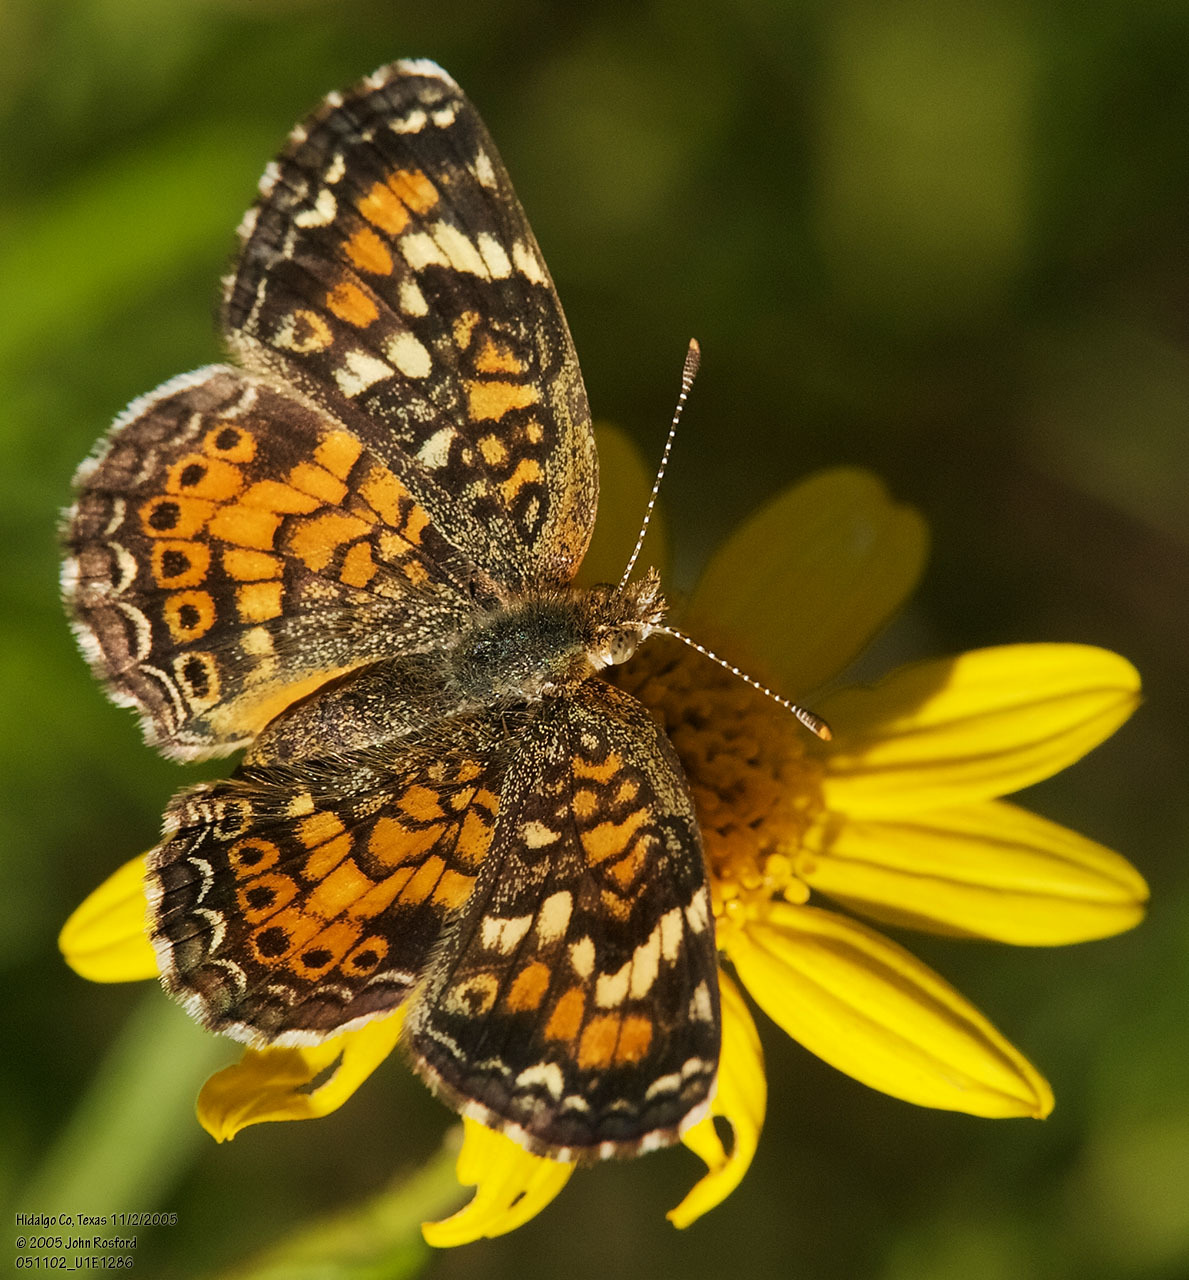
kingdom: Animalia
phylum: Arthropoda
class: Insecta
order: Lepidoptera
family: Nymphalidae
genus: Phyciodes
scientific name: Phyciodes phaon
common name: Phaon crescent
